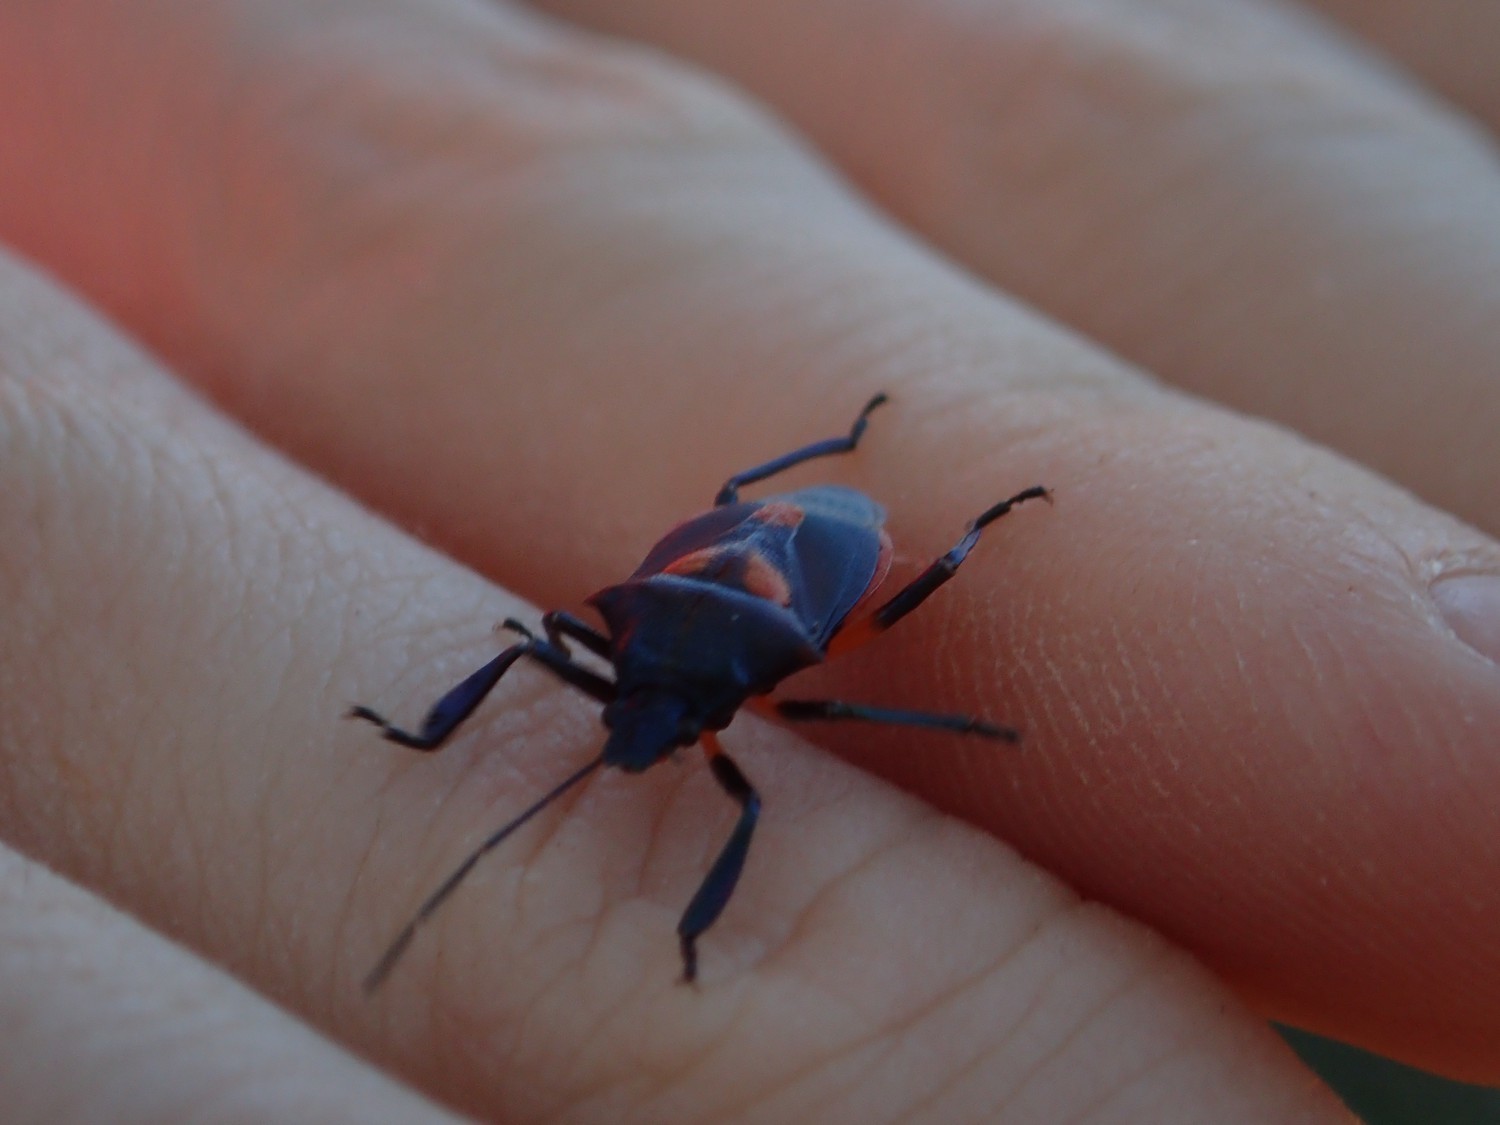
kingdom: Animalia
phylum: Arthropoda
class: Insecta
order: Hemiptera
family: Pentatomidae
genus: Euthyrhynchus
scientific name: Euthyrhynchus floridanus
